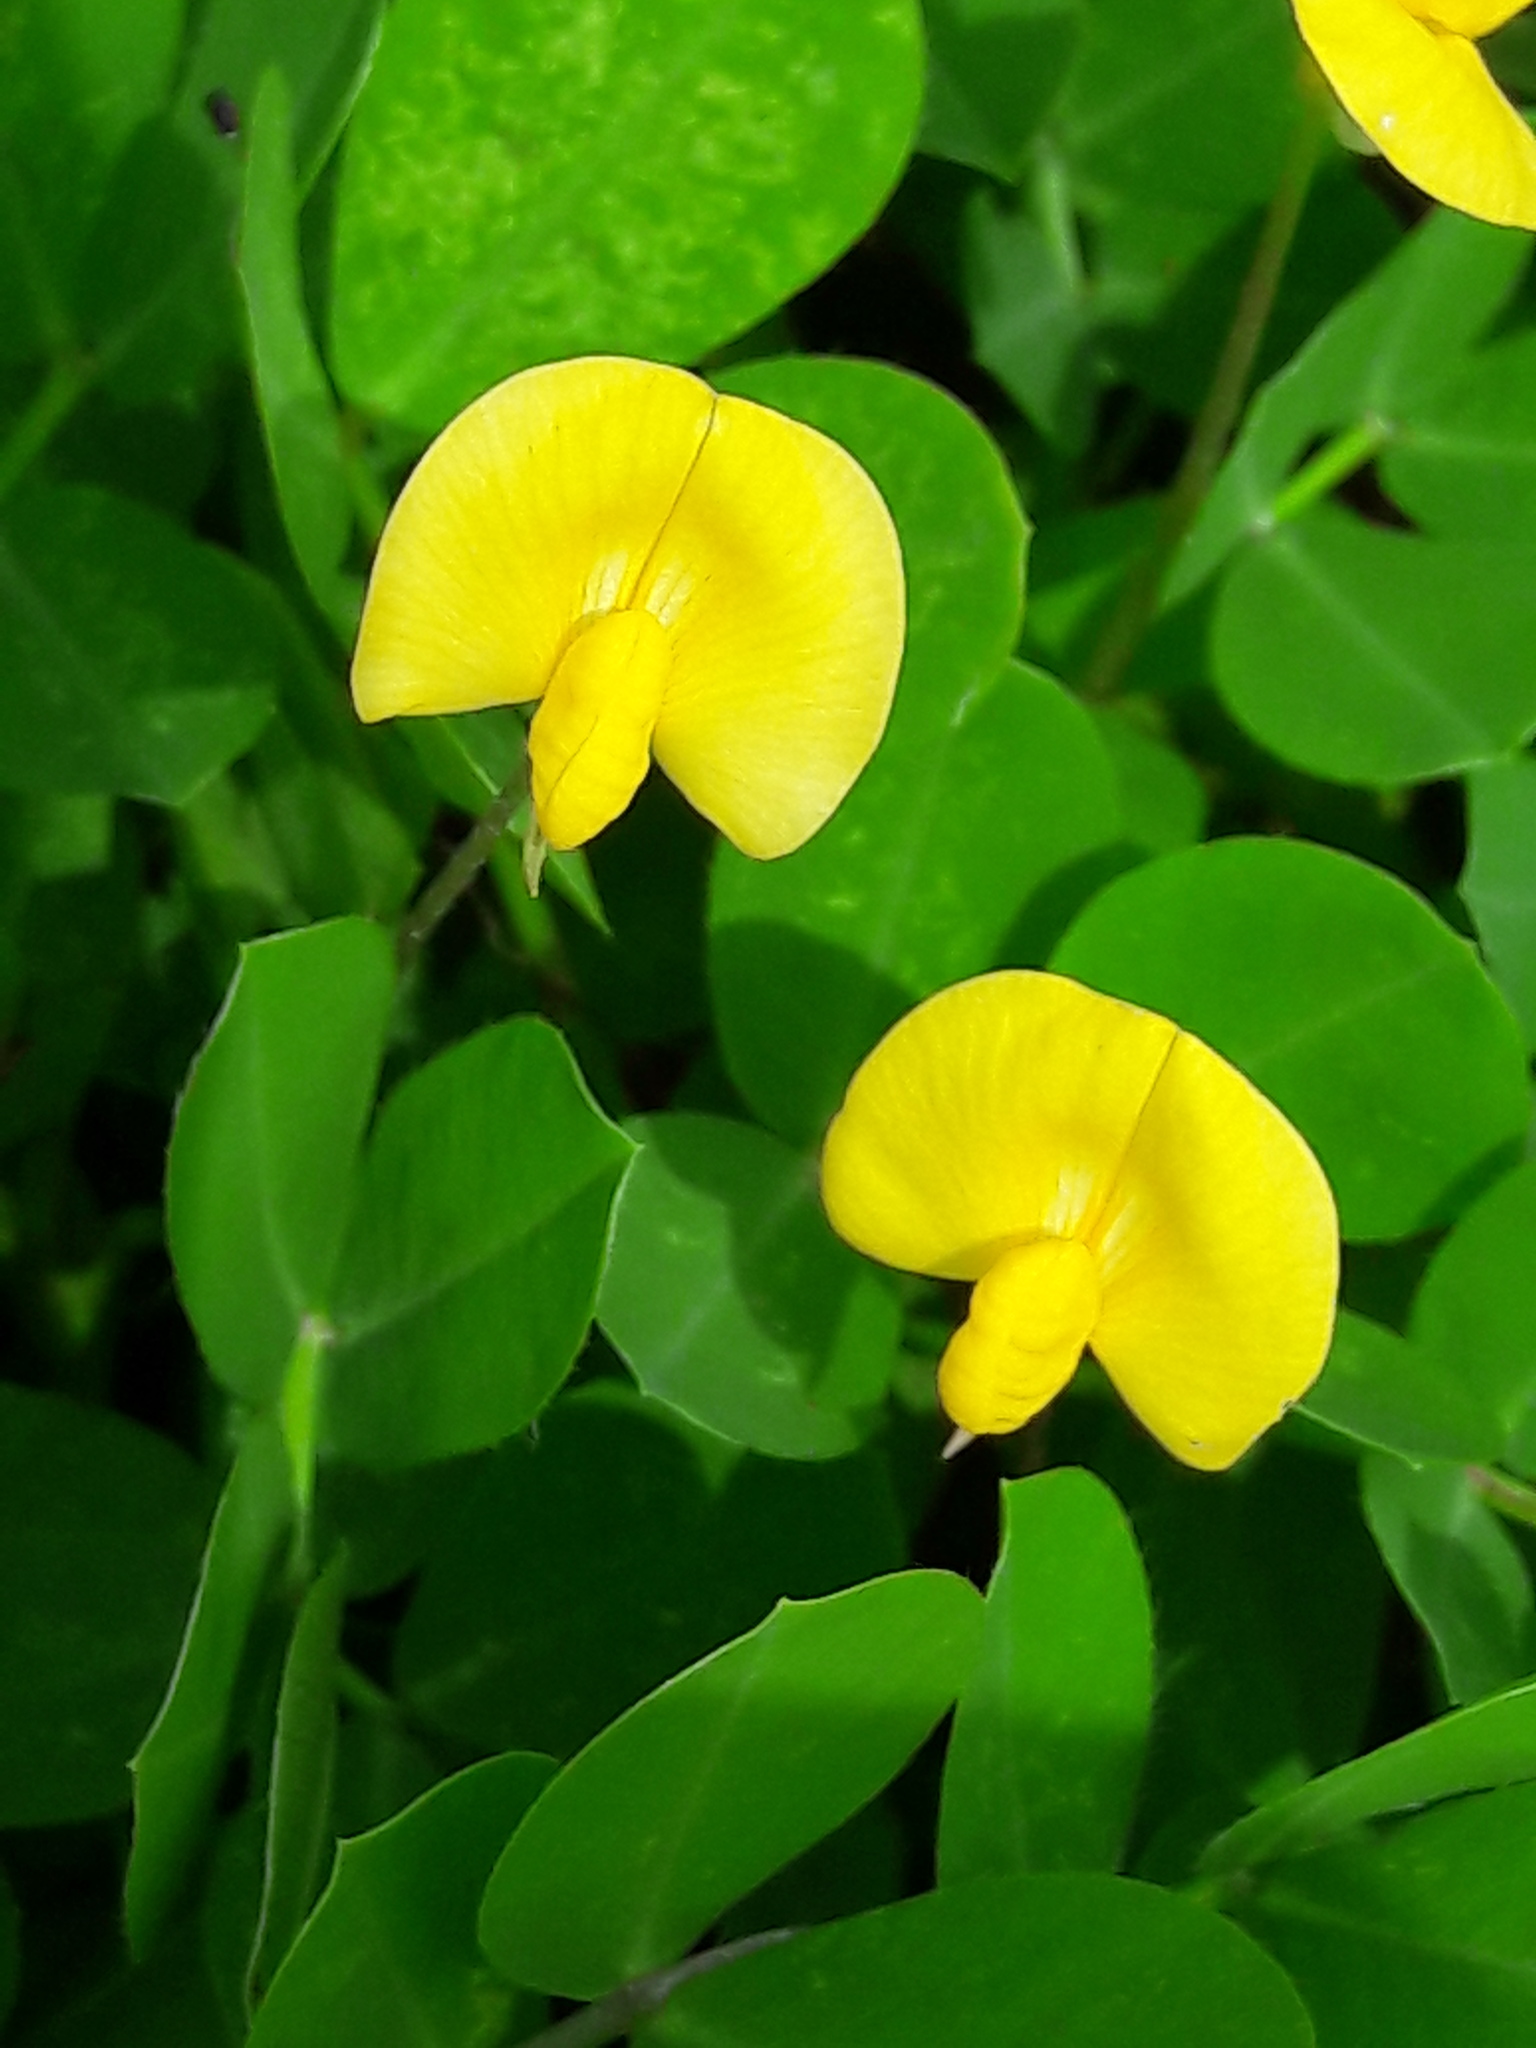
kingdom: Plantae
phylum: Tracheophyta
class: Magnoliopsida
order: Fabales
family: Fabaceae
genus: Arachis
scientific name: Arachis pintoi
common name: Pinto peanut
